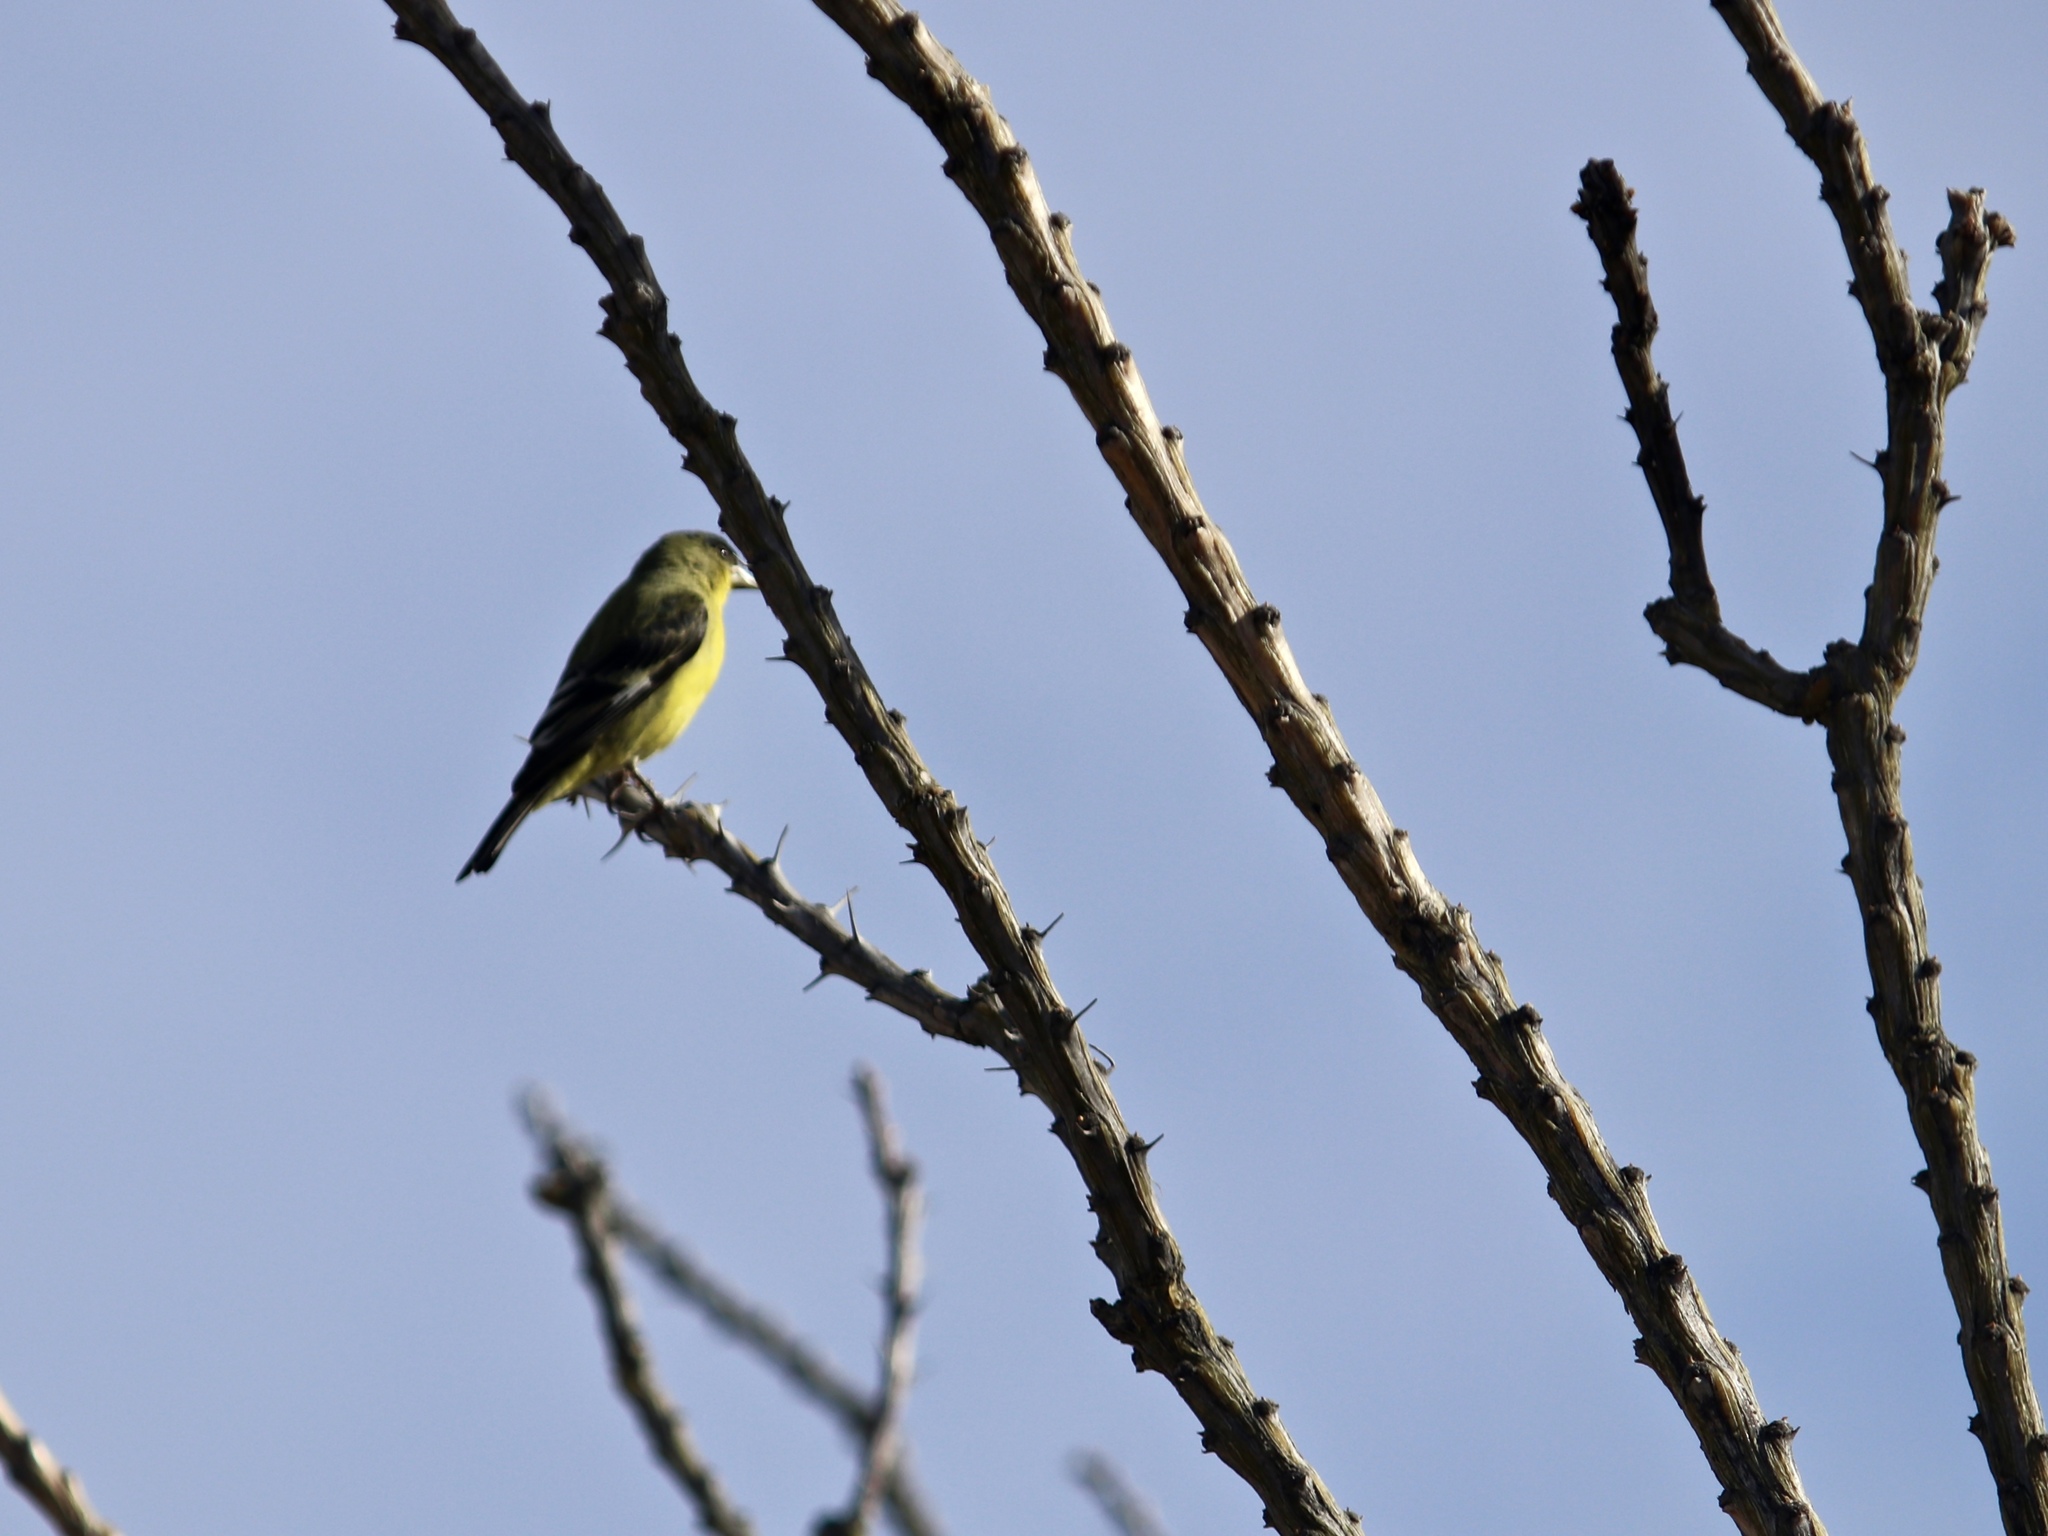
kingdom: Animalia
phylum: Chordata
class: Aves
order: Passeriformes
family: Fringillidae
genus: Spinus
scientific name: Spinus psaltria
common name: Lesser goldfinch
